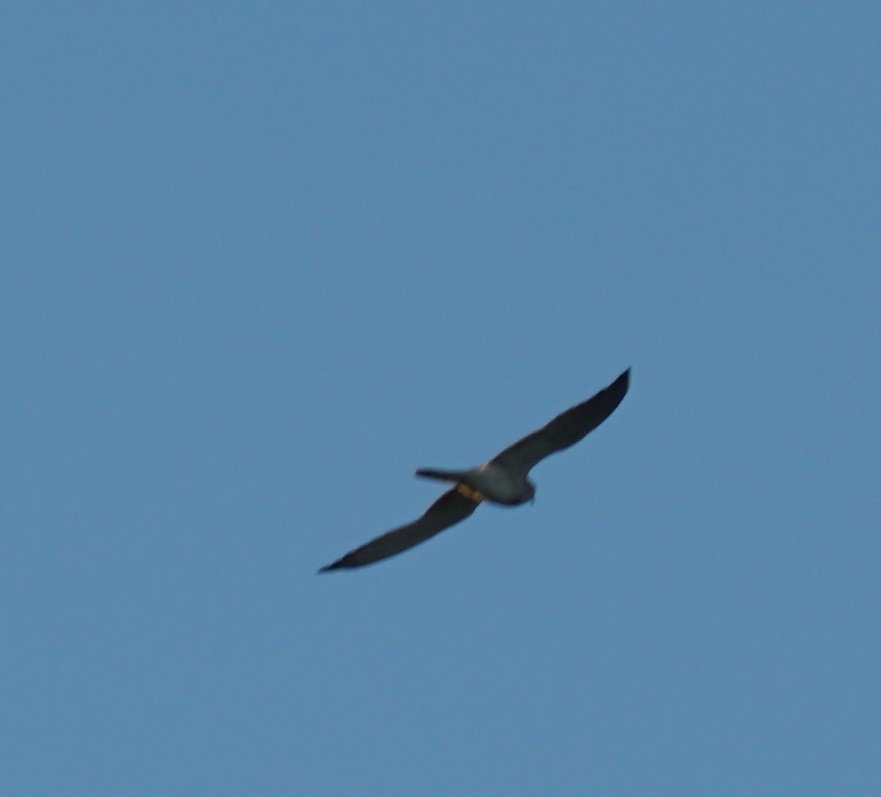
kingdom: Animalia
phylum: Chordata
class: Aves
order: Falconiformes
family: Falconidae
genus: Falco
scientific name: Falco cenchroides
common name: Nankeen kestrel
